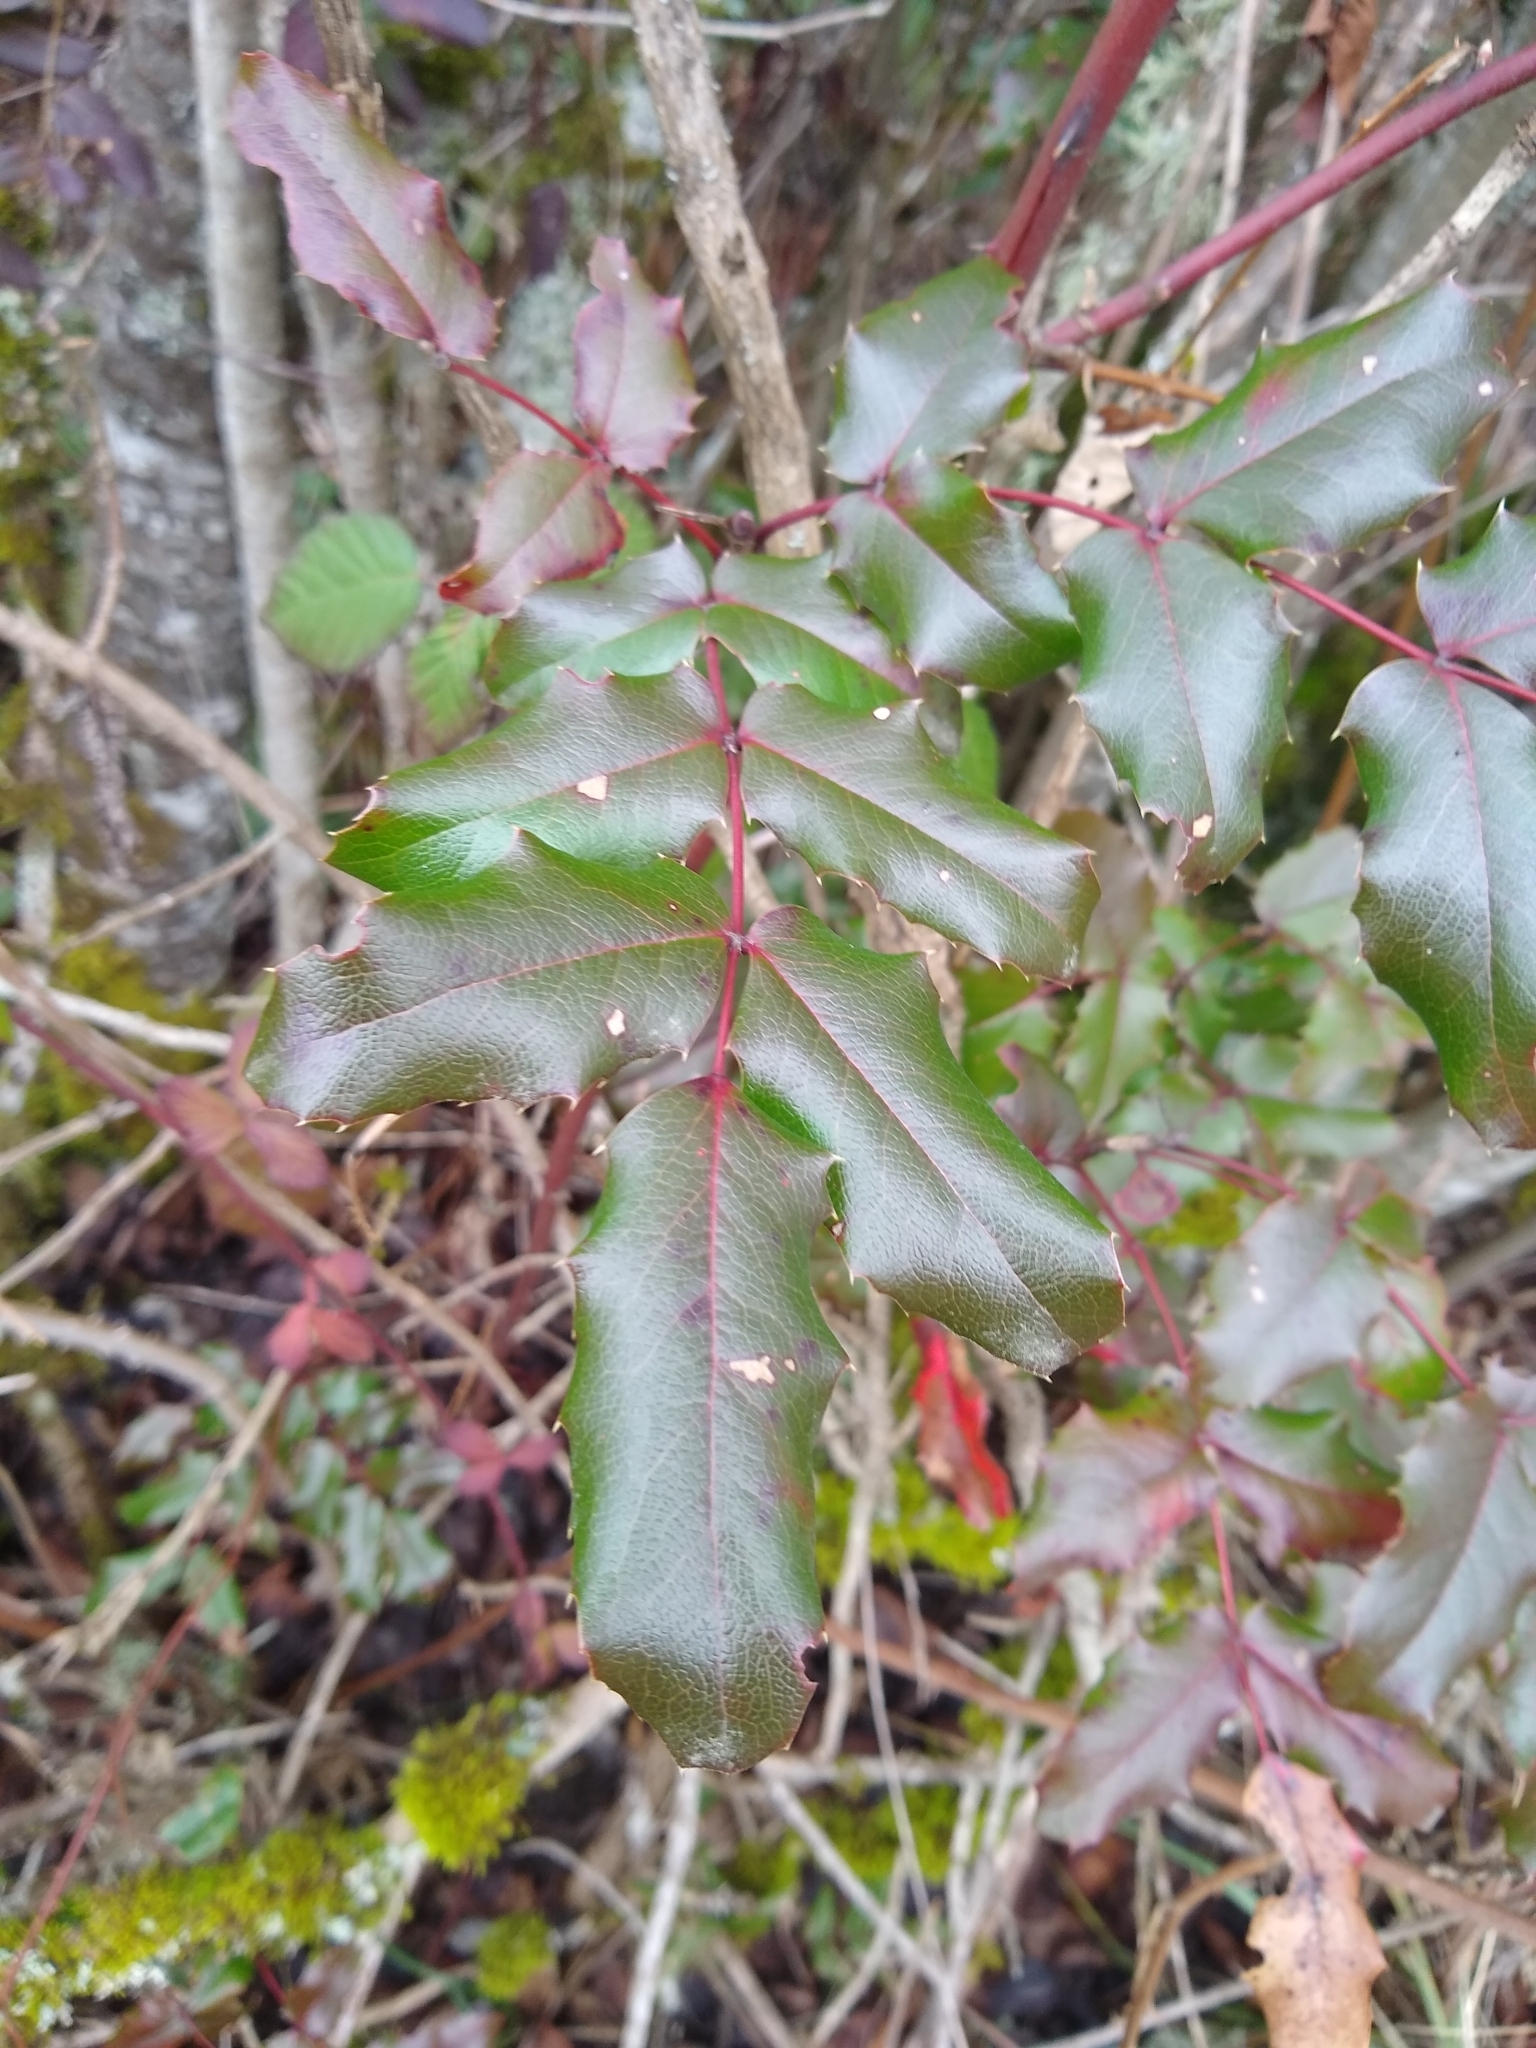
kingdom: Plantae
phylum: Tracheophyta
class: Magnoliopsida
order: Ranunculales
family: Berberidaceae
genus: Mahonia
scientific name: Mahonia aquifolium
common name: Oregon-grape
